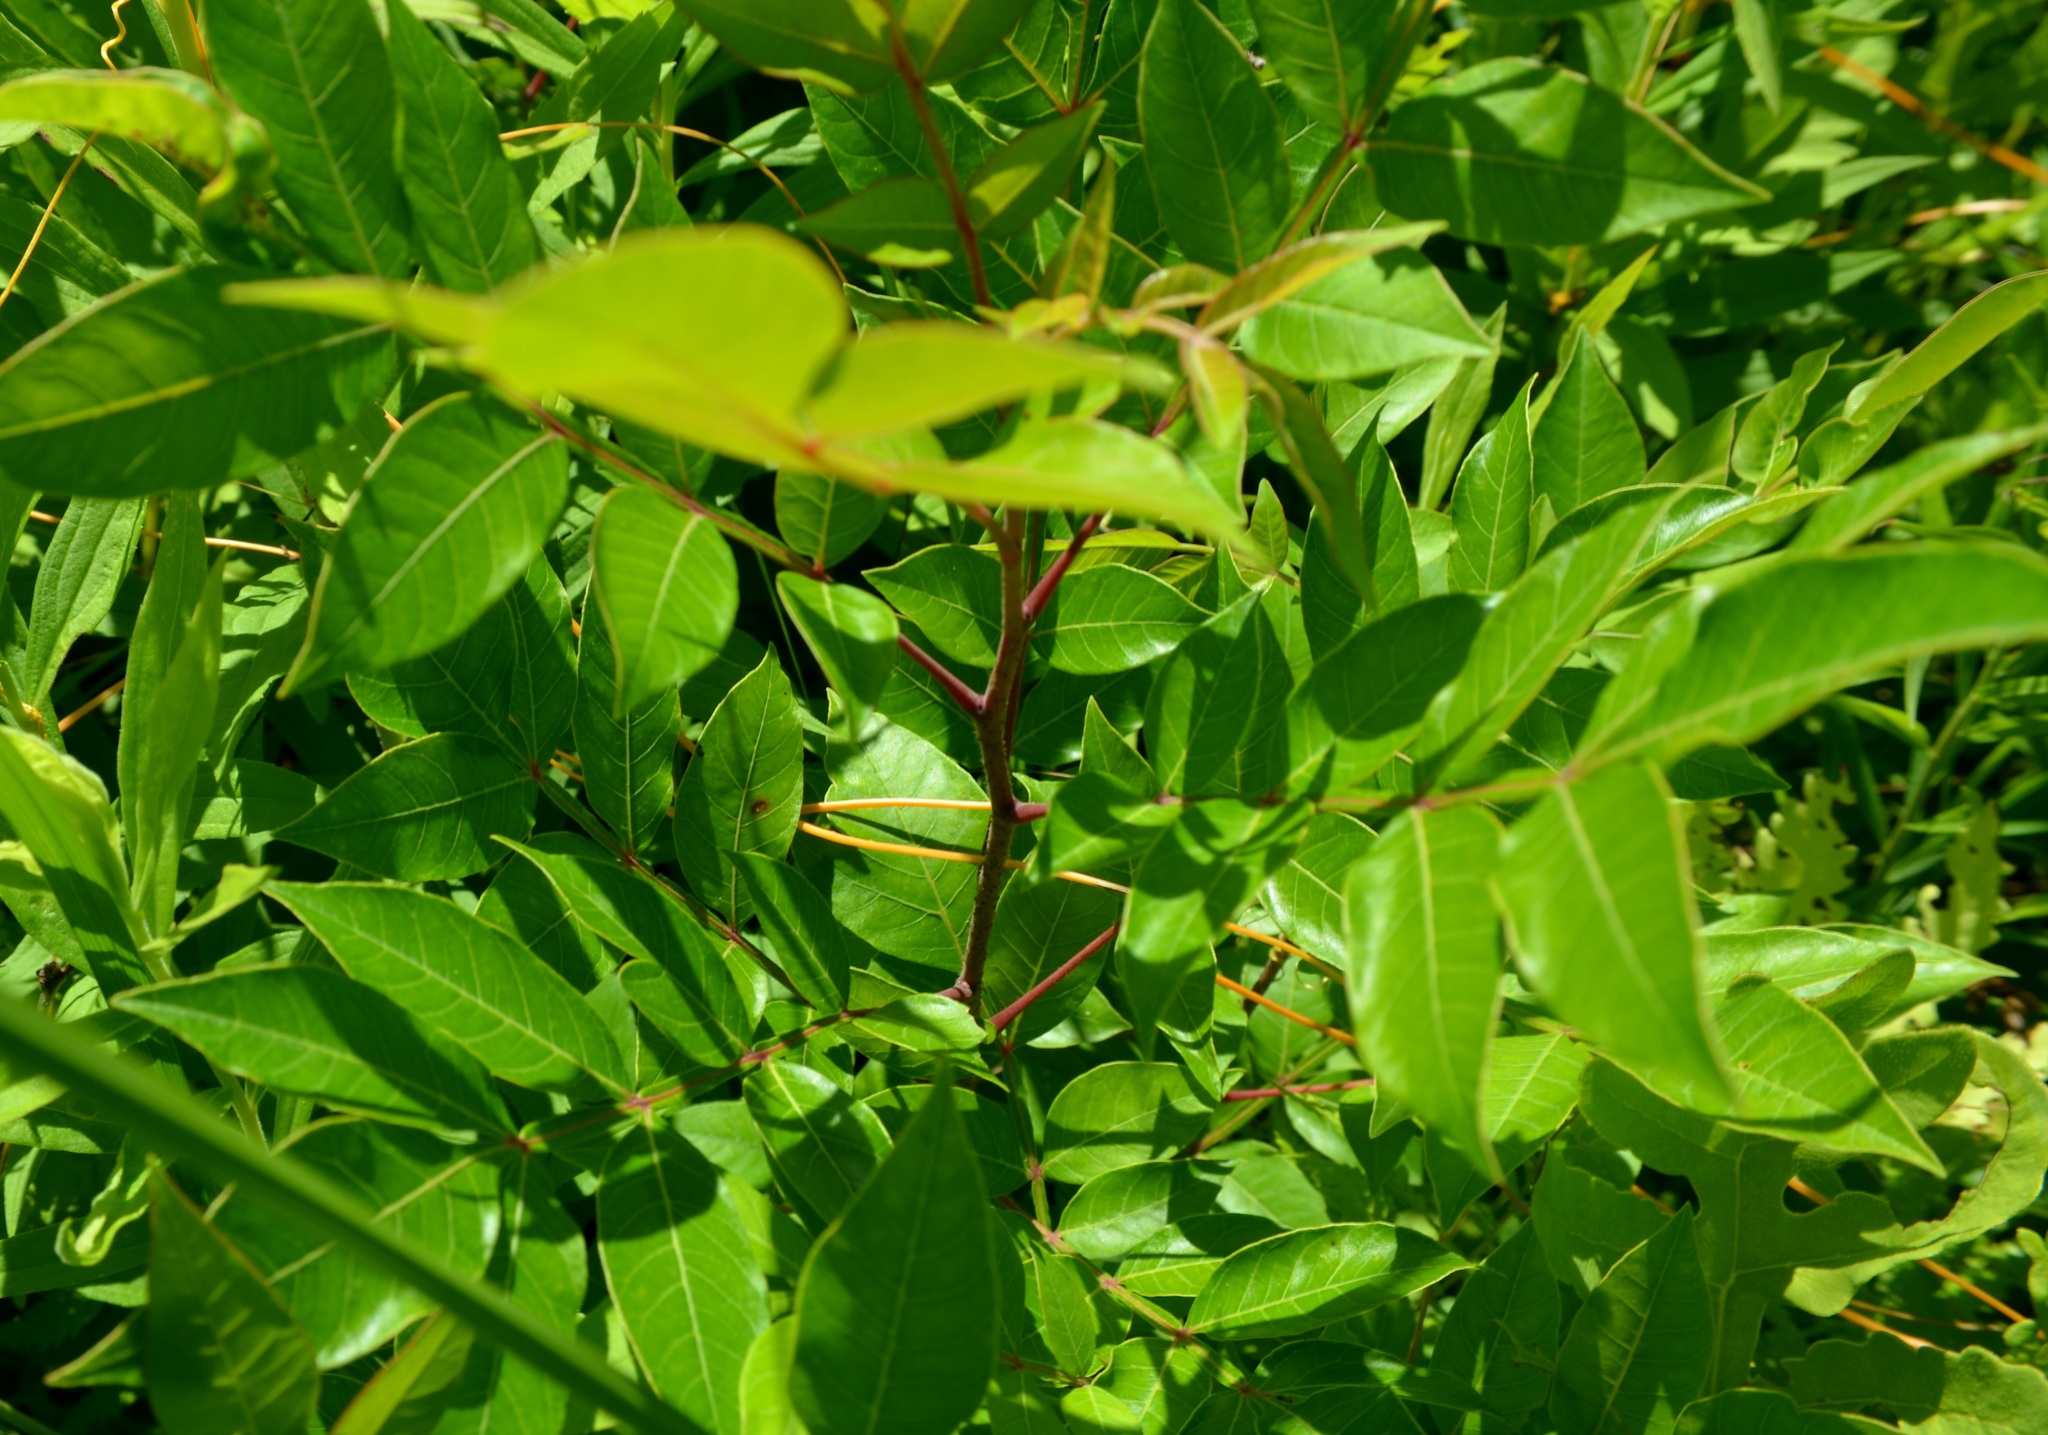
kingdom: Plantae
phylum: Tracheophyta
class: Magnoliopsida
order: Sapindales
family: Anacardiaceae
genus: Rhus
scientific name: Rhus copallina
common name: Shining sumac
